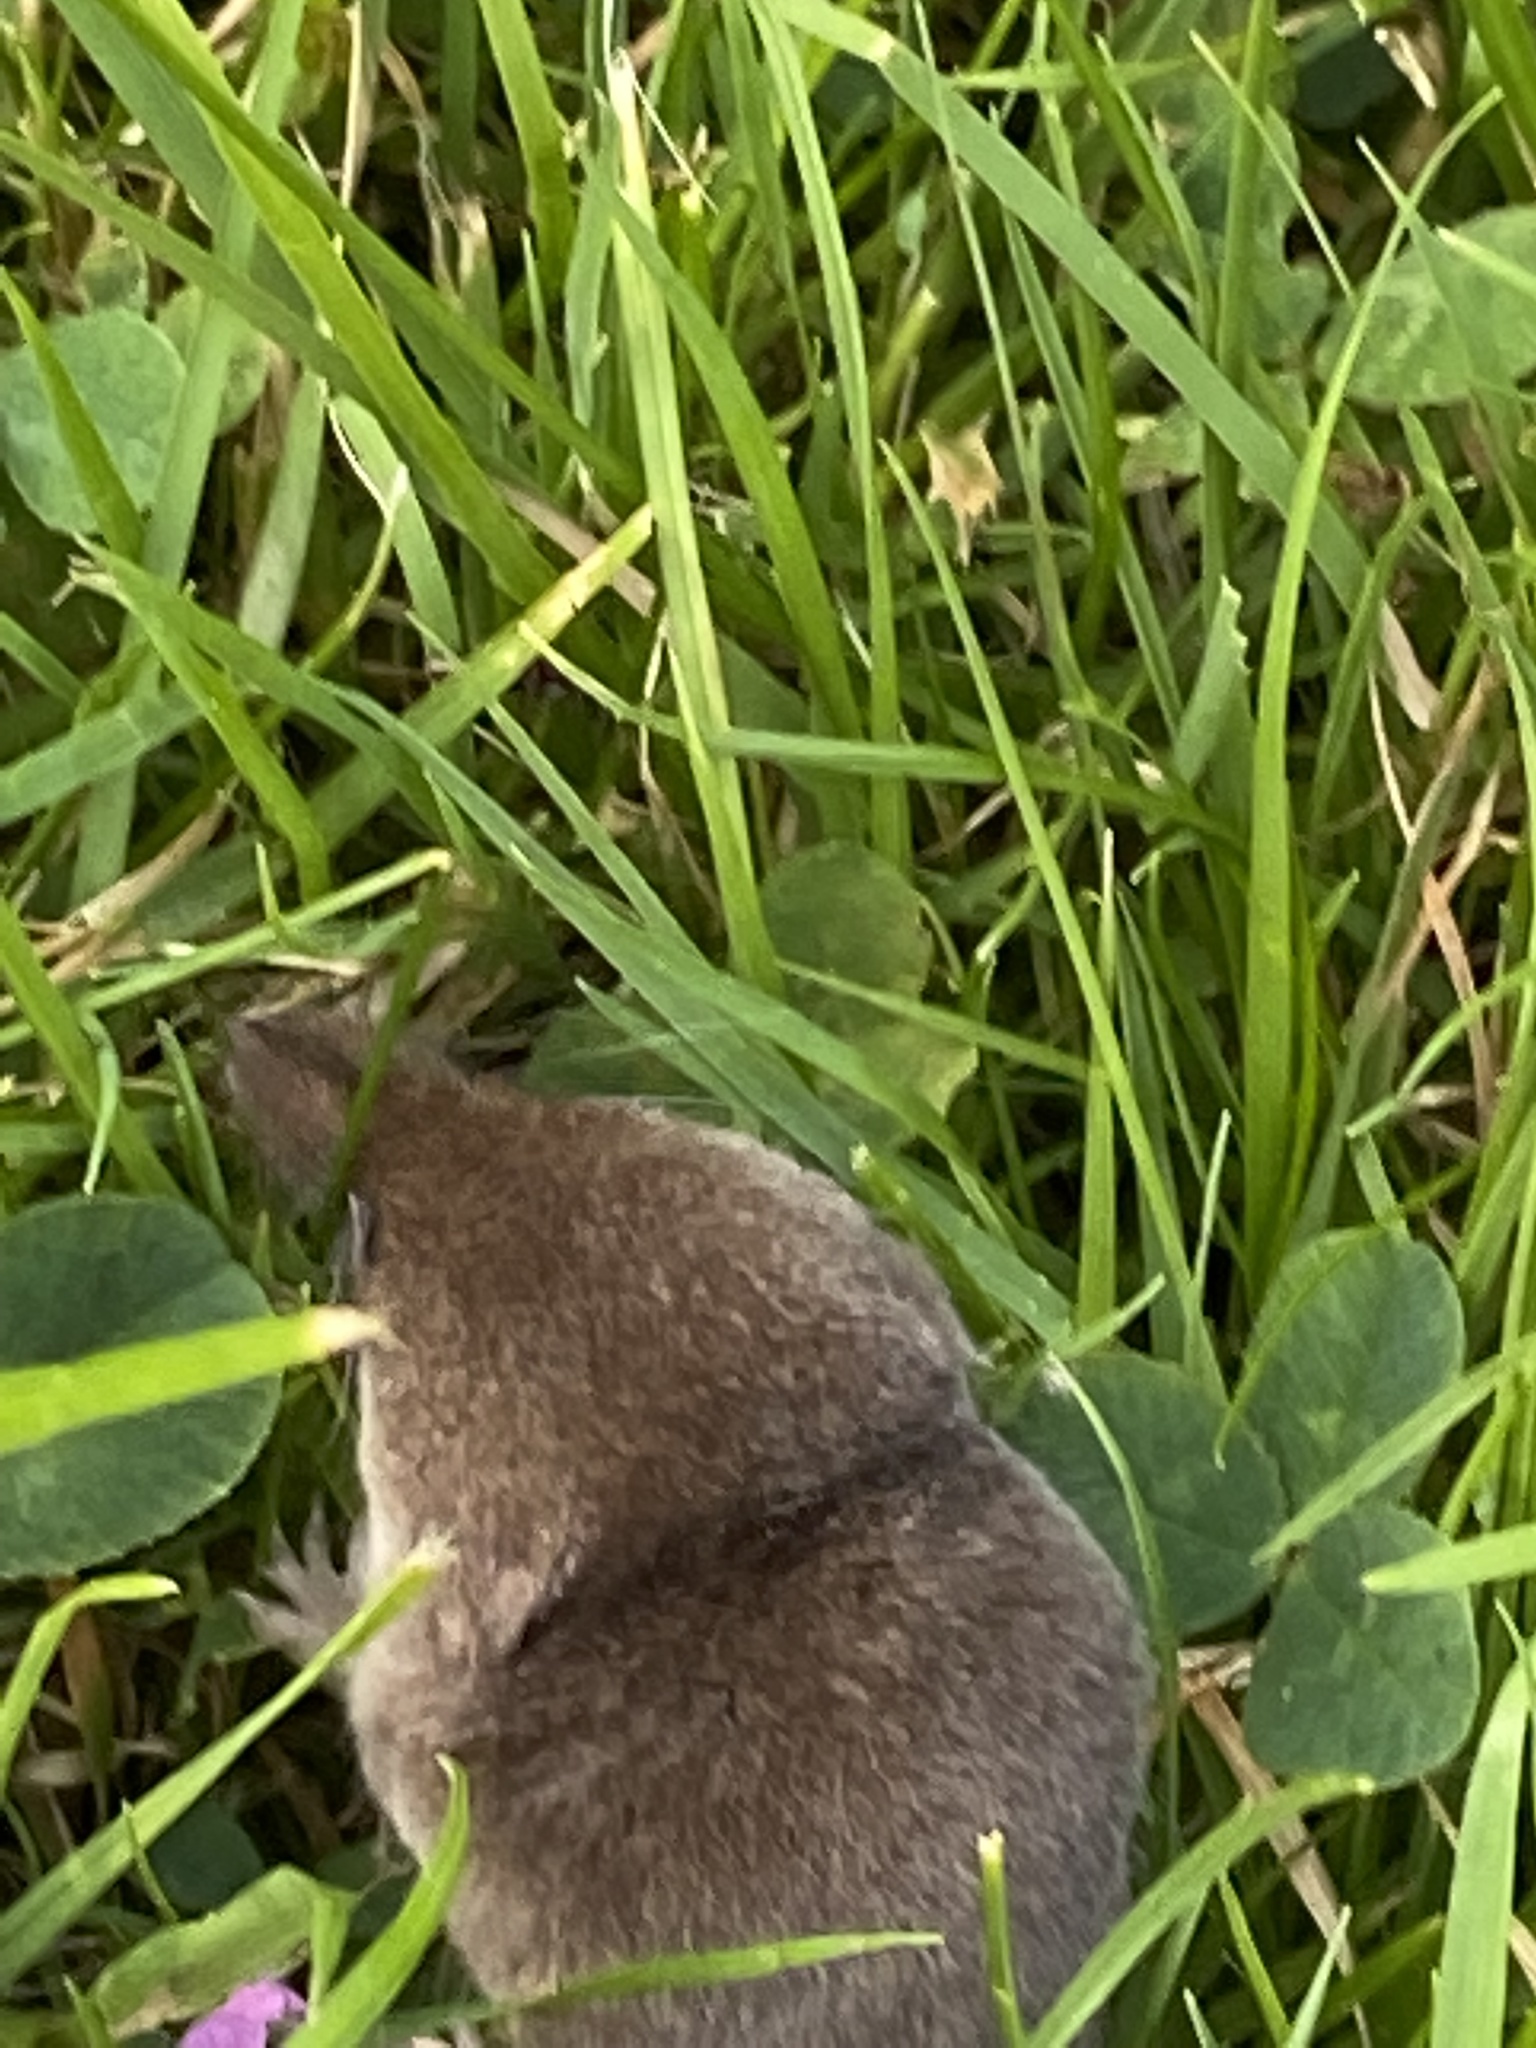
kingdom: Animalia
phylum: Chordata
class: Mammalia
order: Soricomorpha
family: Soricidae
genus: Sorex
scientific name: Sorex araneus
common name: Common shrew
